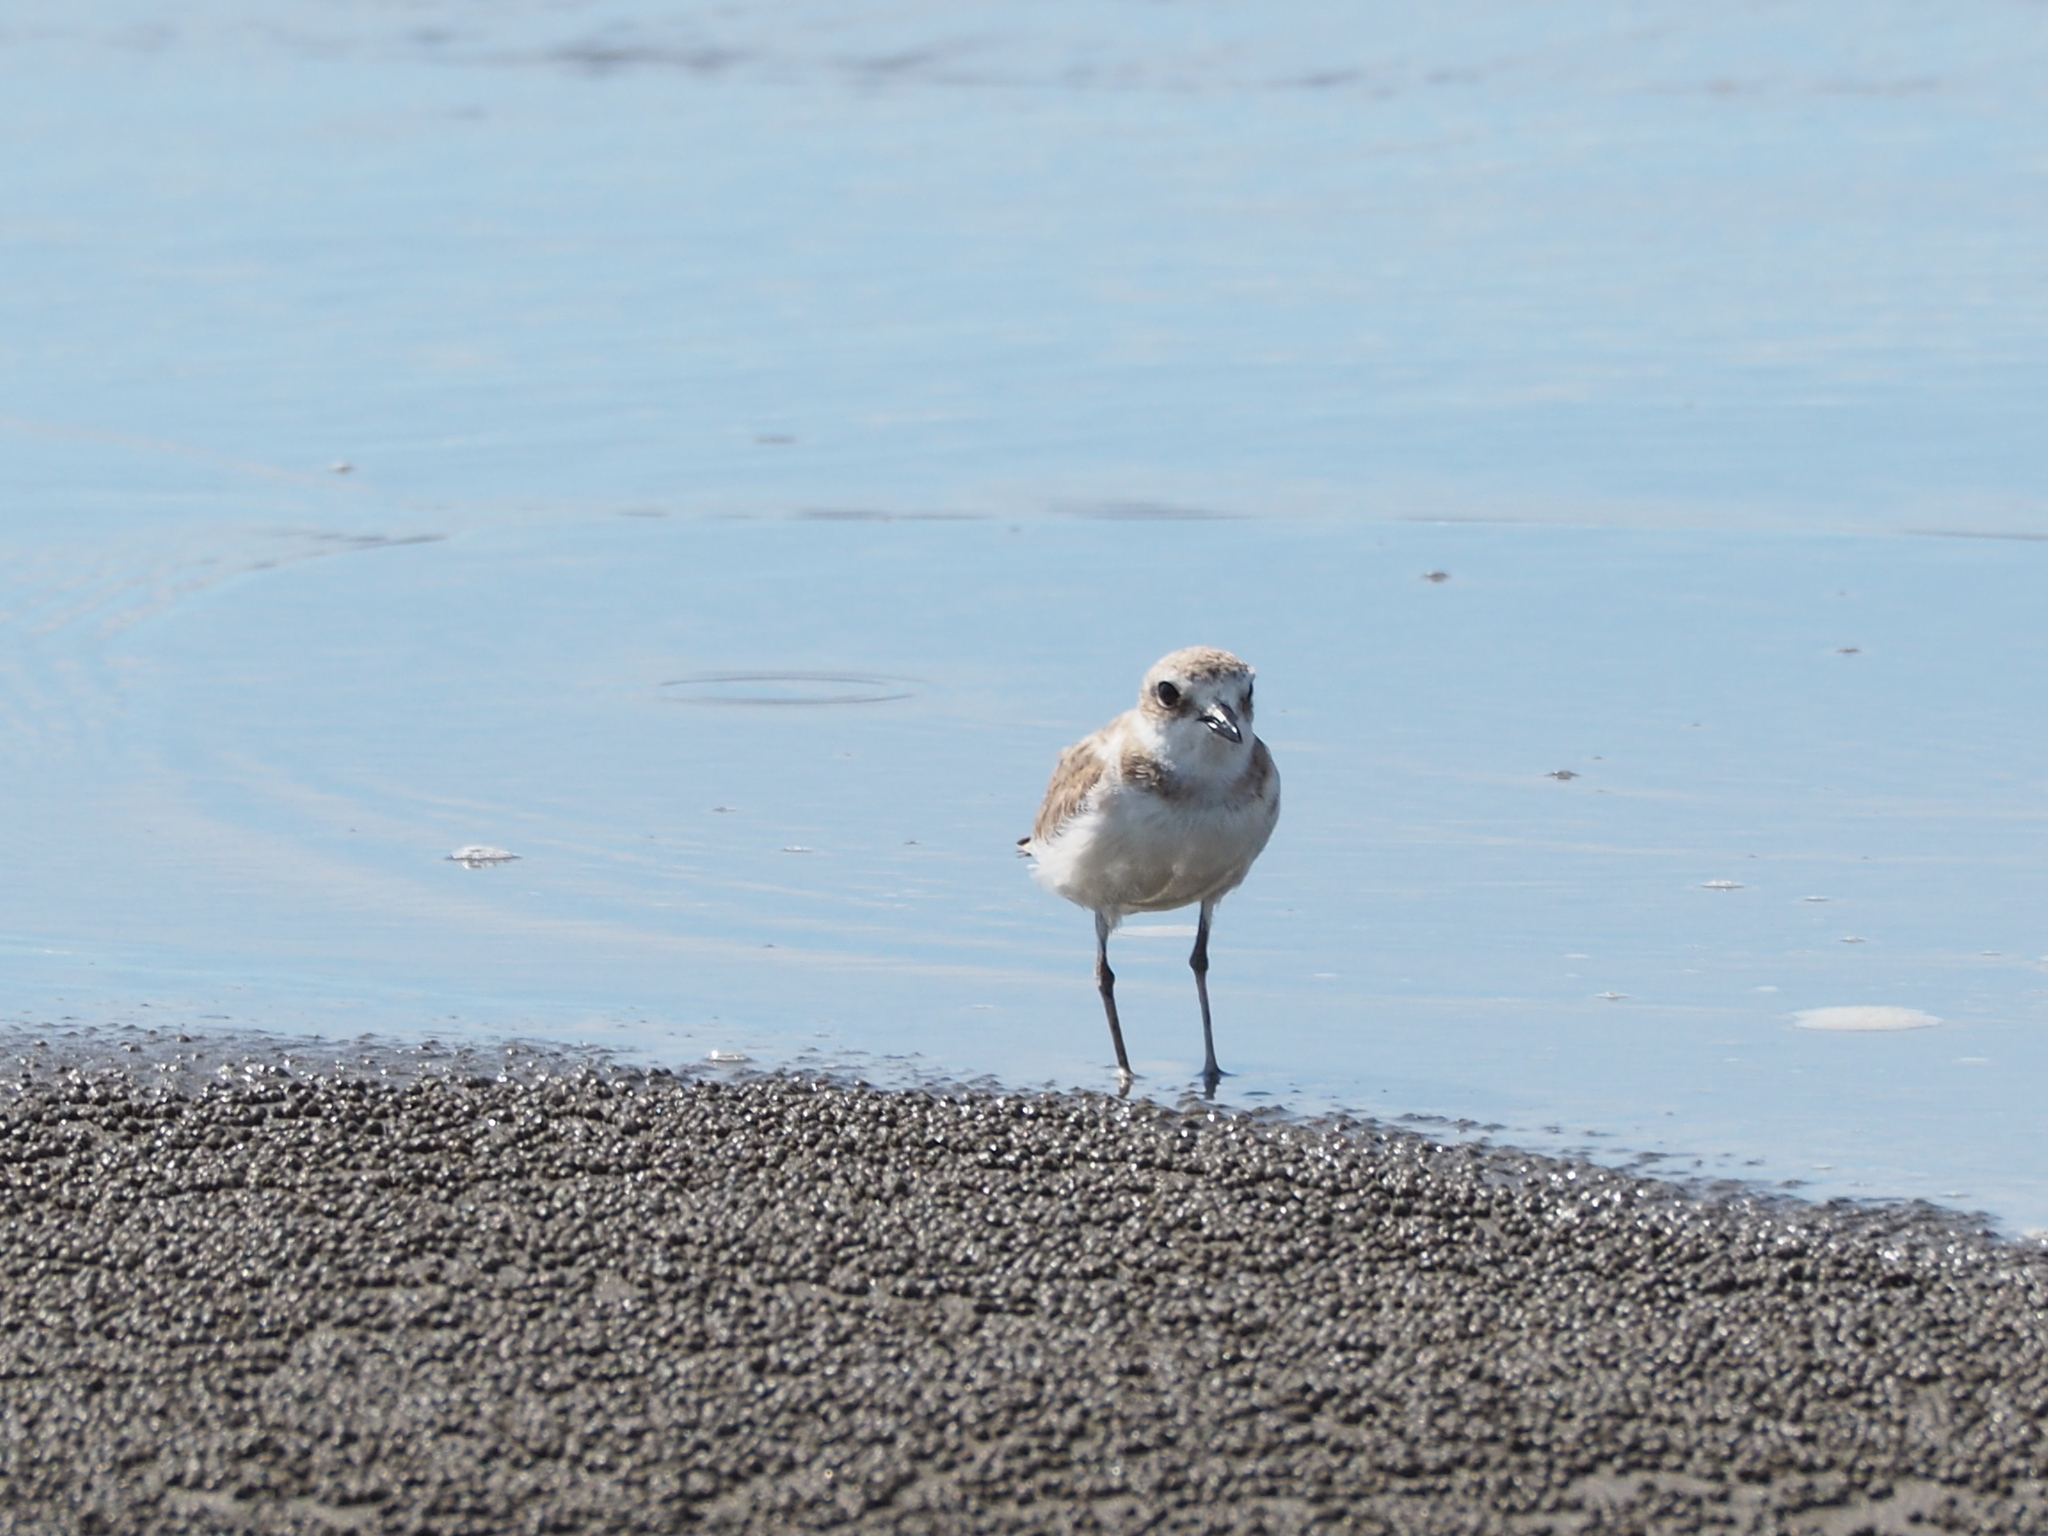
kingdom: Animalia
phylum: Chordata
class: Aves
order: Charadriiformes
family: Charadriidae
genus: Charadrius
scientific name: Charadrius alexandrinus
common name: Kentish plover
